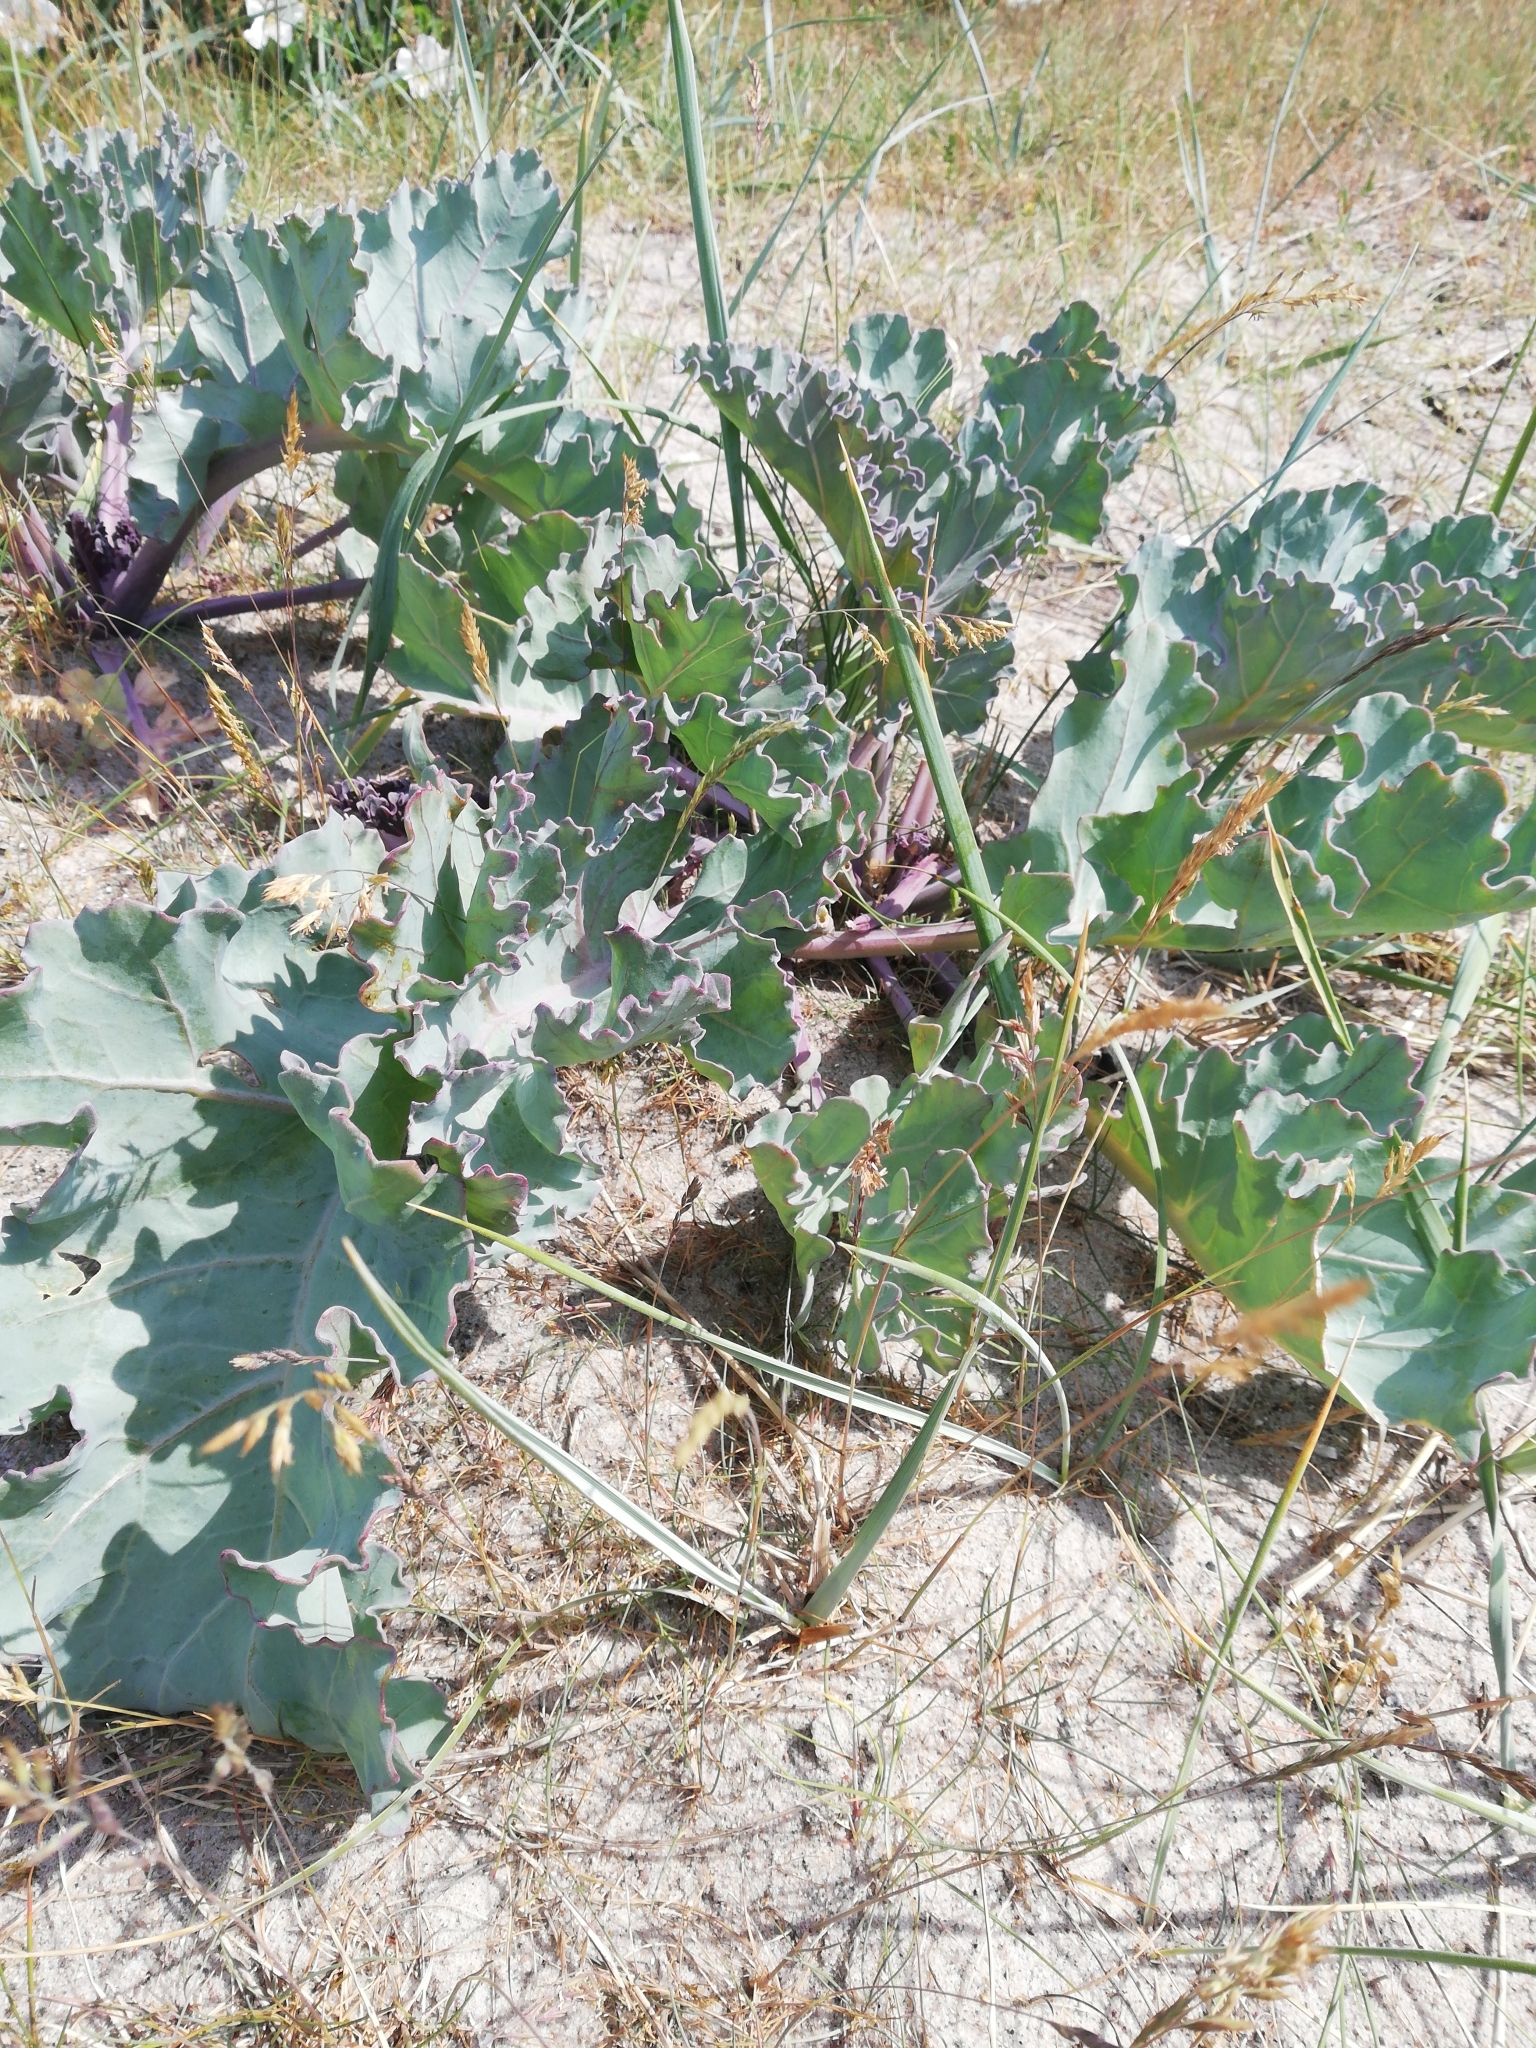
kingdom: Plantae
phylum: Tracheophyta
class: Magnoliopsida
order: Brassicales
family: Brassicaceae
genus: Crambe
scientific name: Crambe maritima
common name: Sea-kale
